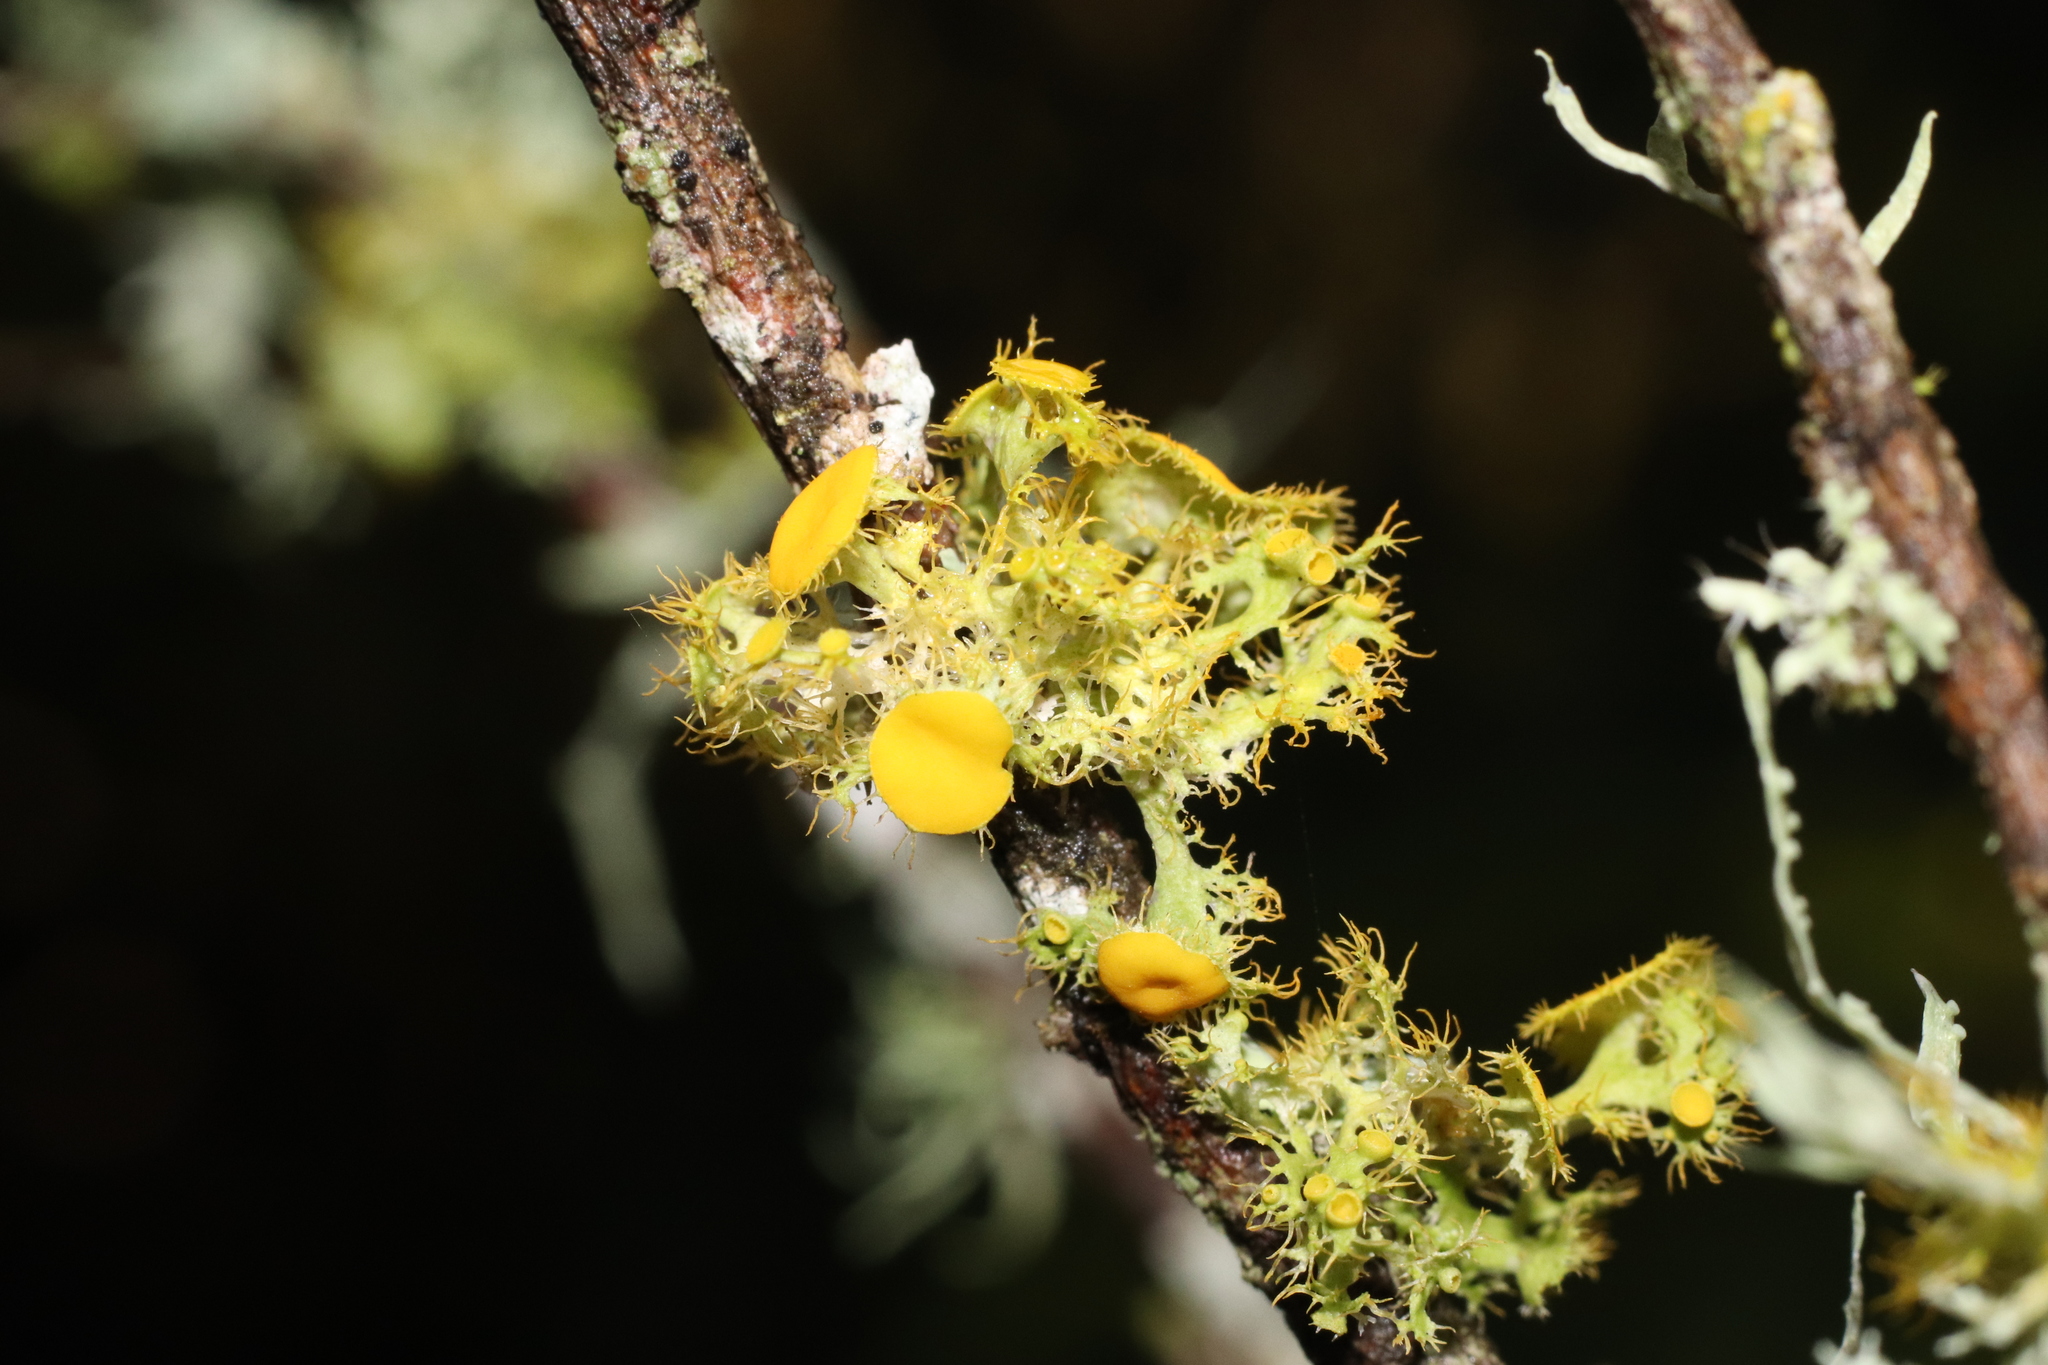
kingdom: Fungi
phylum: Ascomycota
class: Lecanoromycetes
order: Teloschistales
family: Teloschistaceae
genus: Niorma
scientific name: Niorma chrysophthalma
